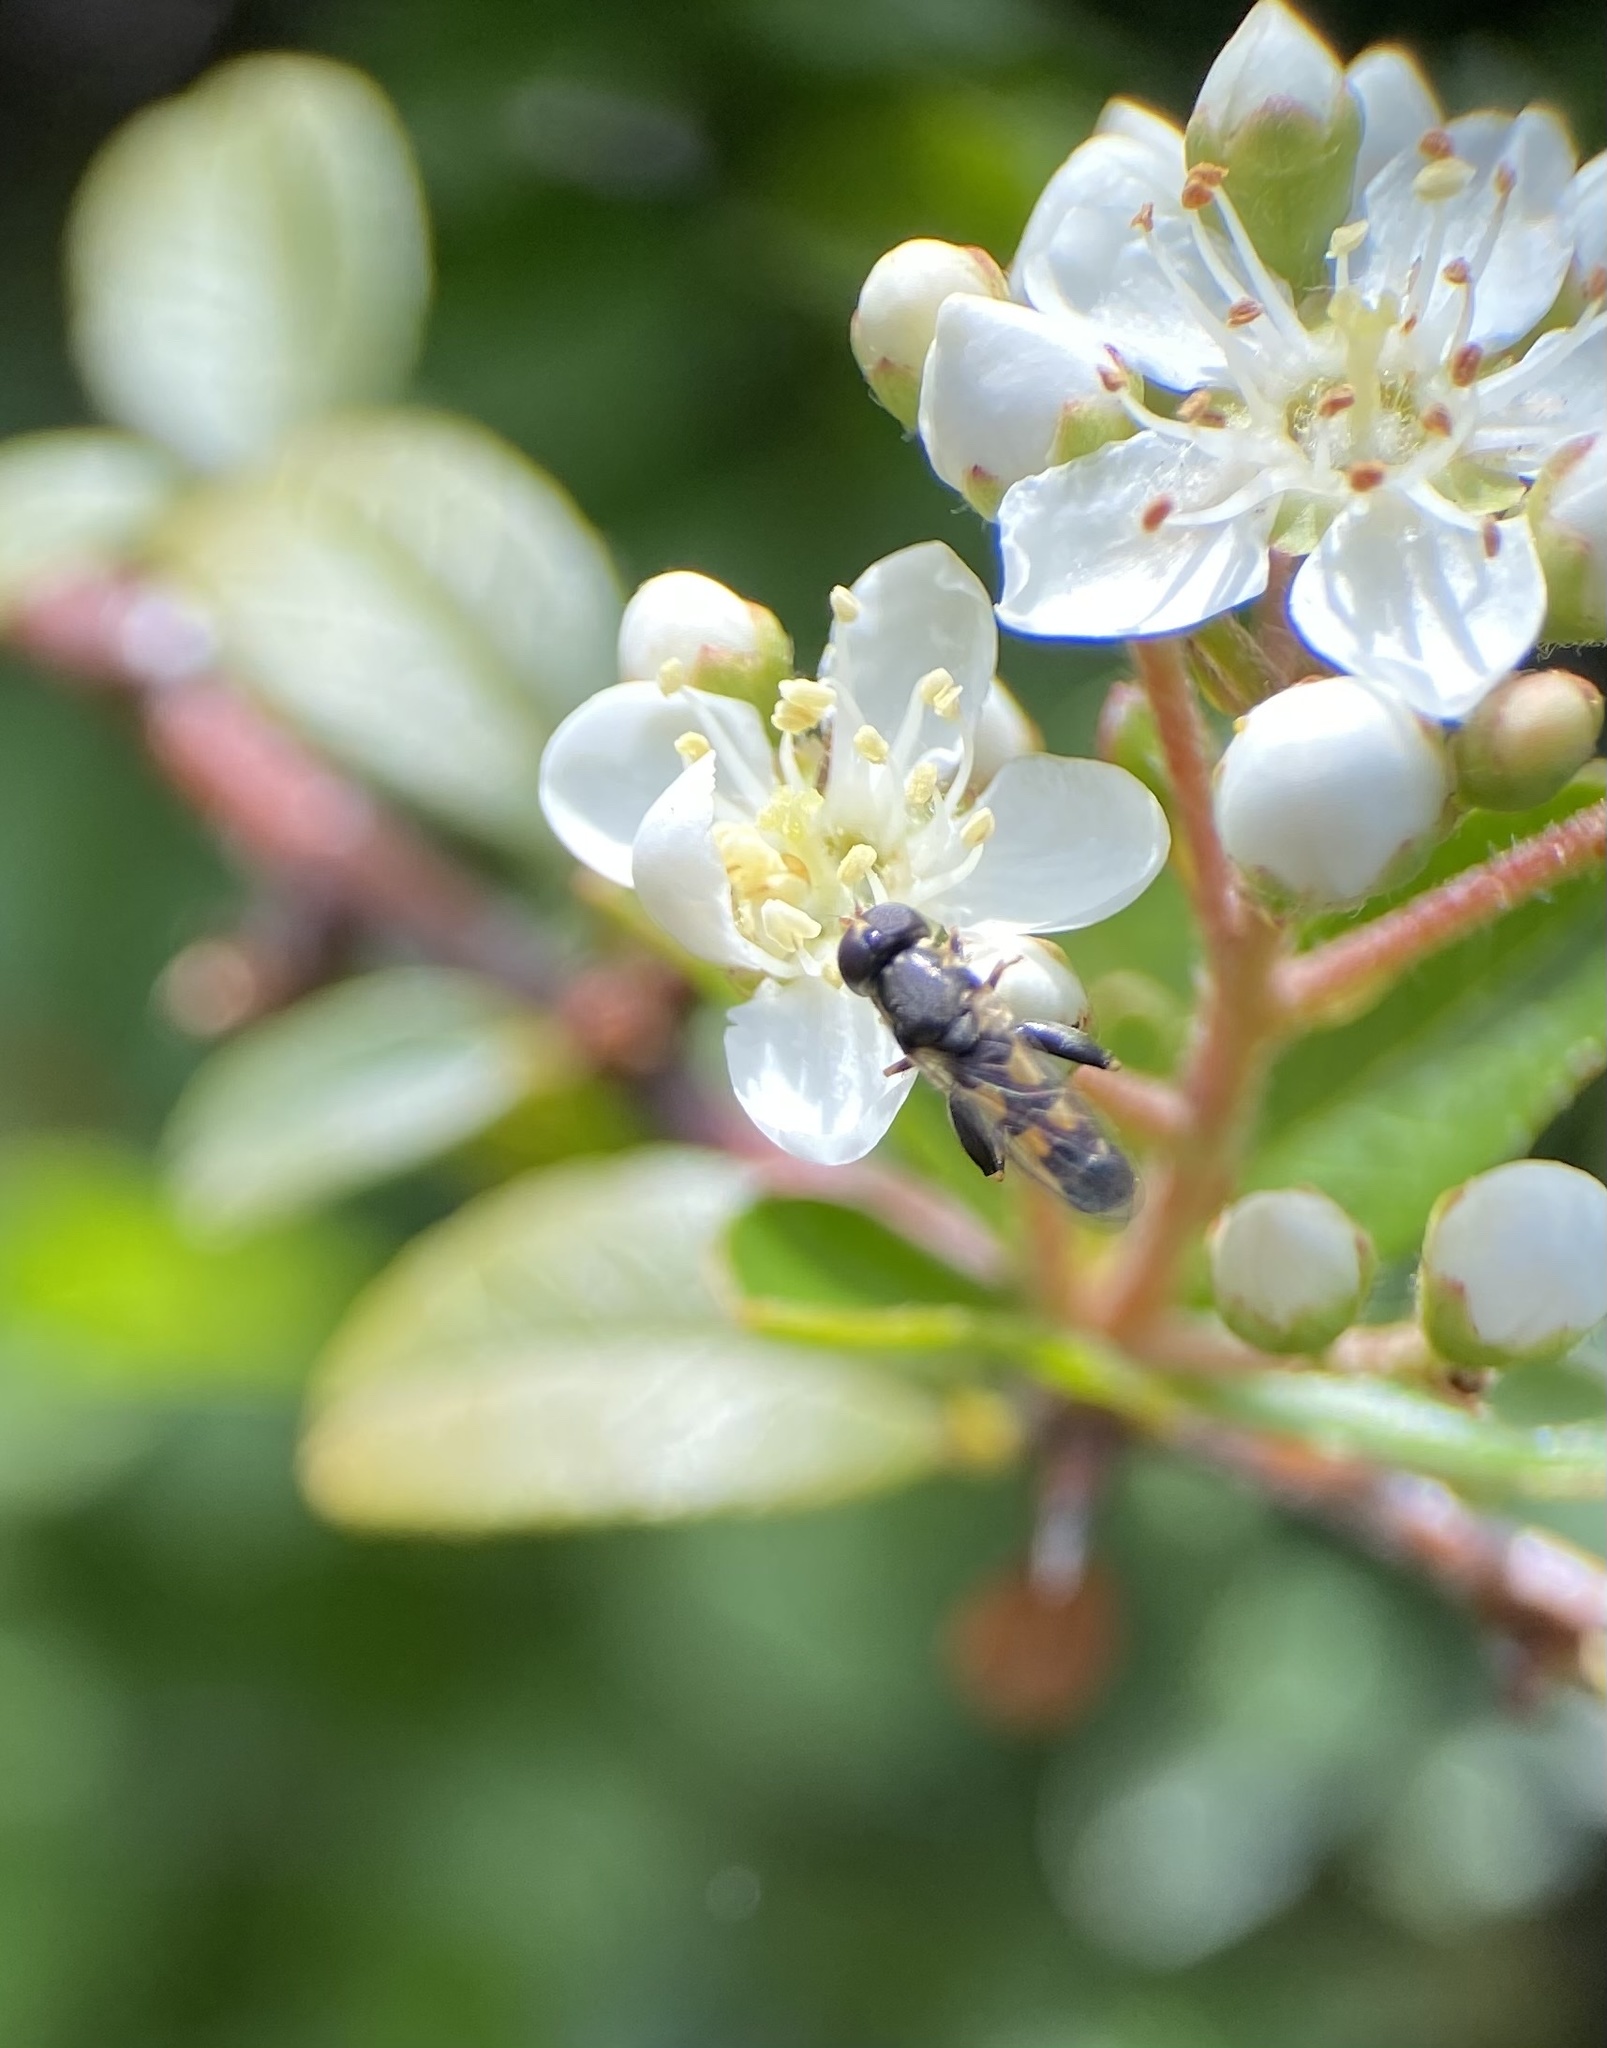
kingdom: Animalia
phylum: Arthropoda
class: Insecta
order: Diptera
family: Syrphidae
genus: Syritta
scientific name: Syritta pipiens
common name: Hover fly
